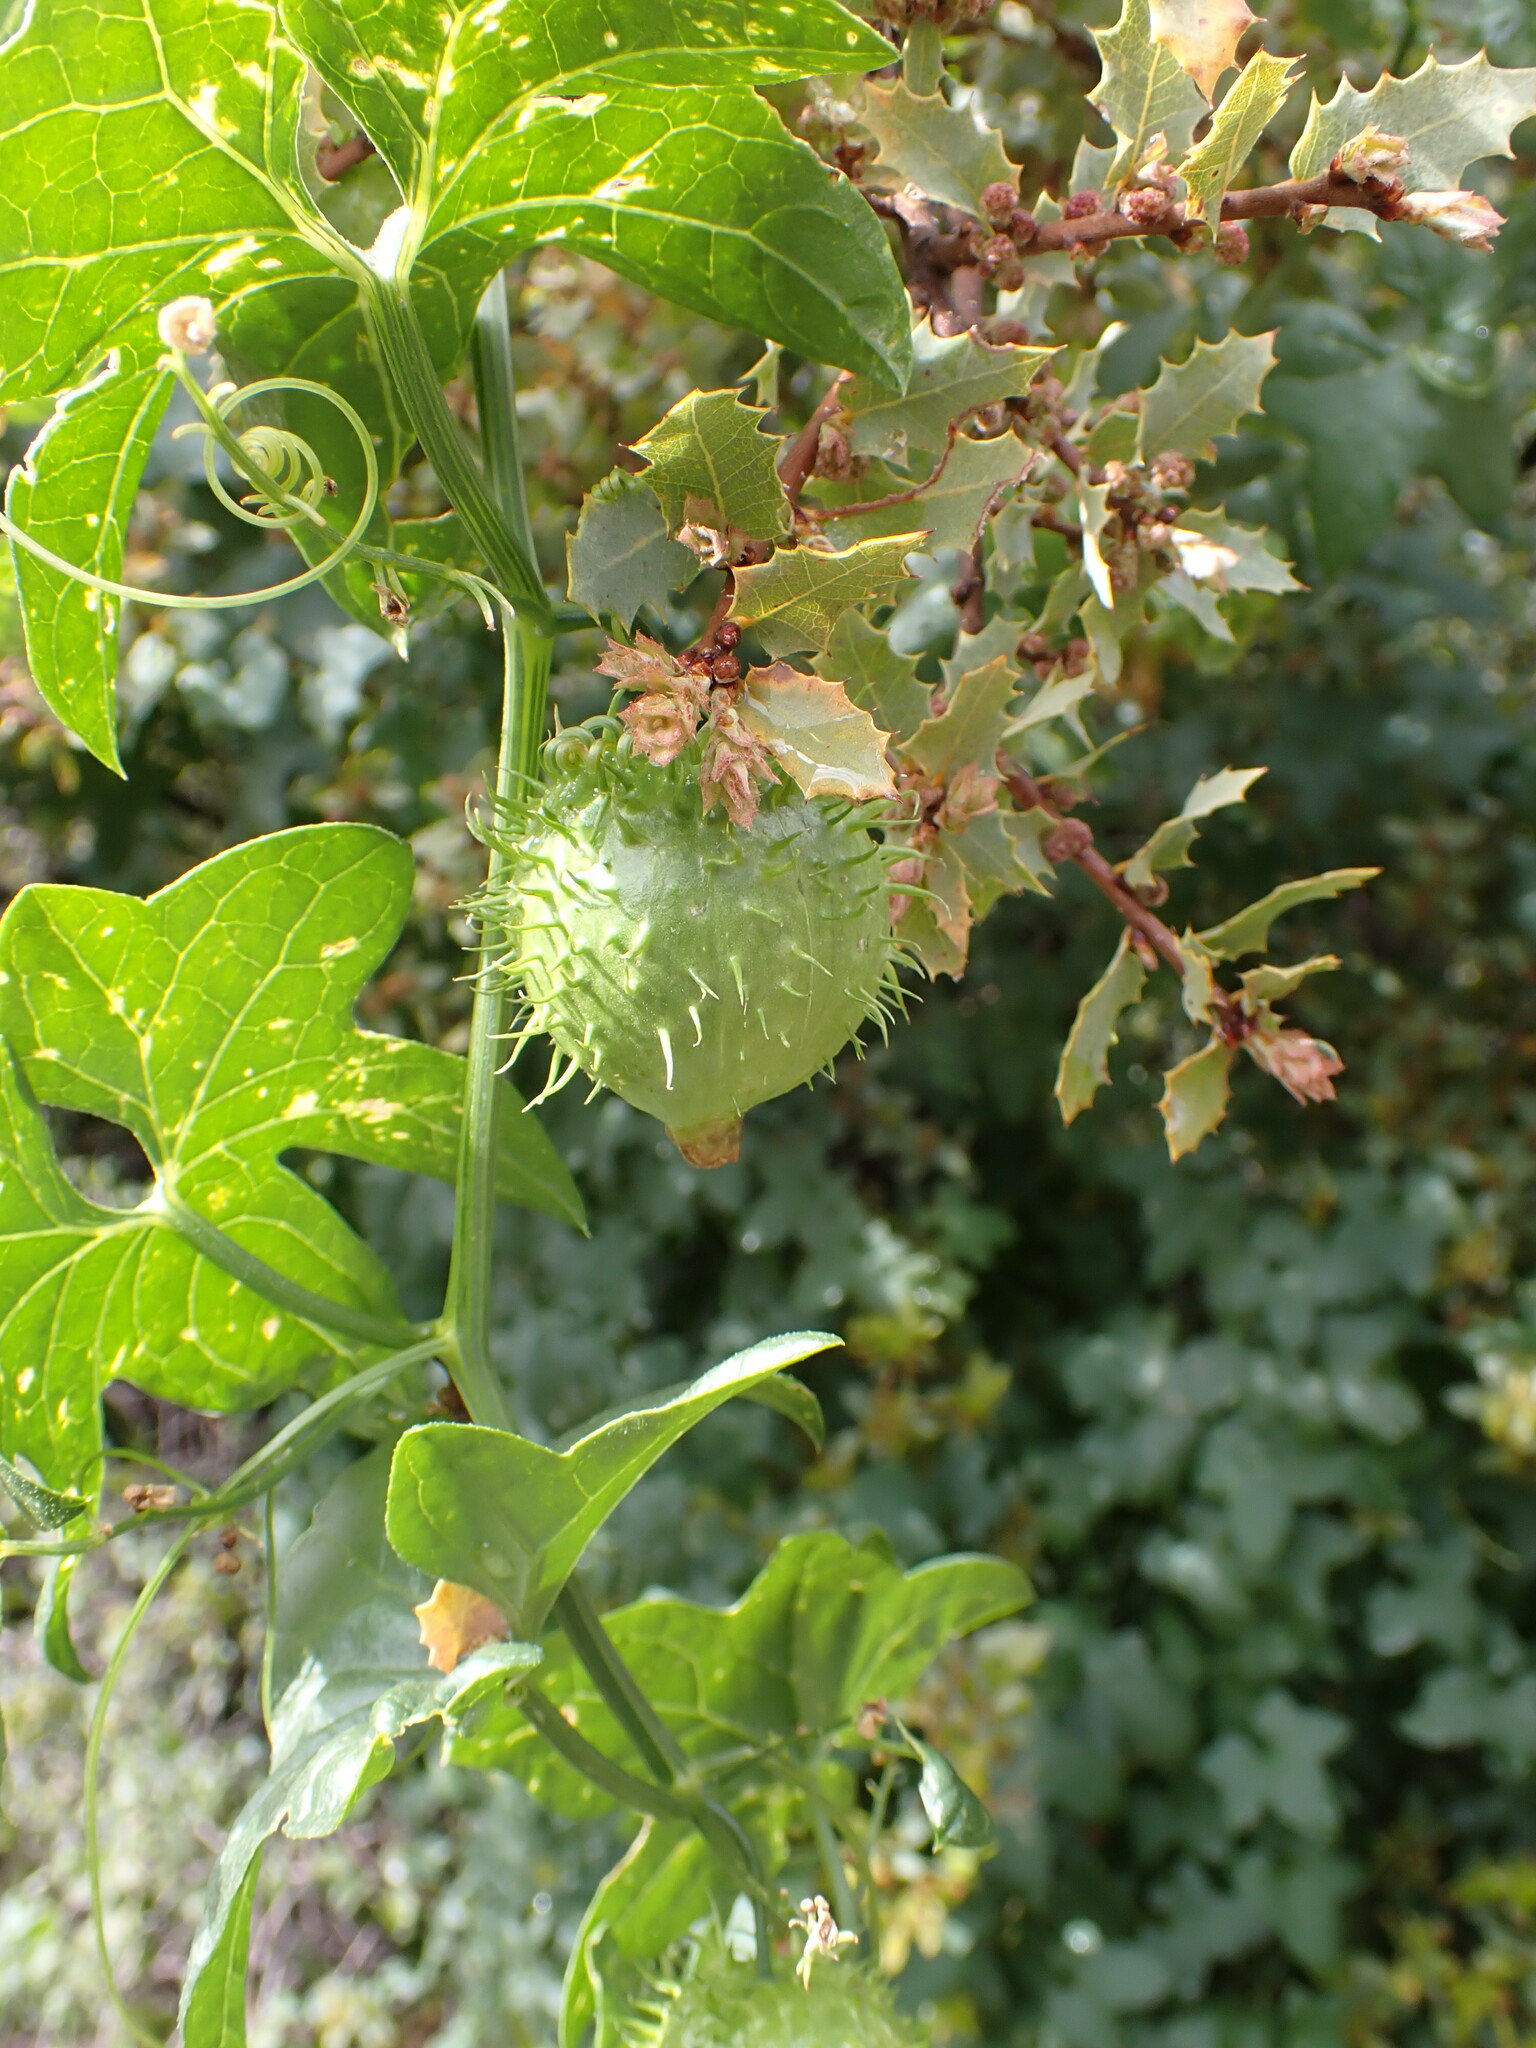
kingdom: Plantae
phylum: Tracheophyta
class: Magnoliopsida
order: Cucurbitales
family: Cucurbitaceae
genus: Marah
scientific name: Marah gilensis
